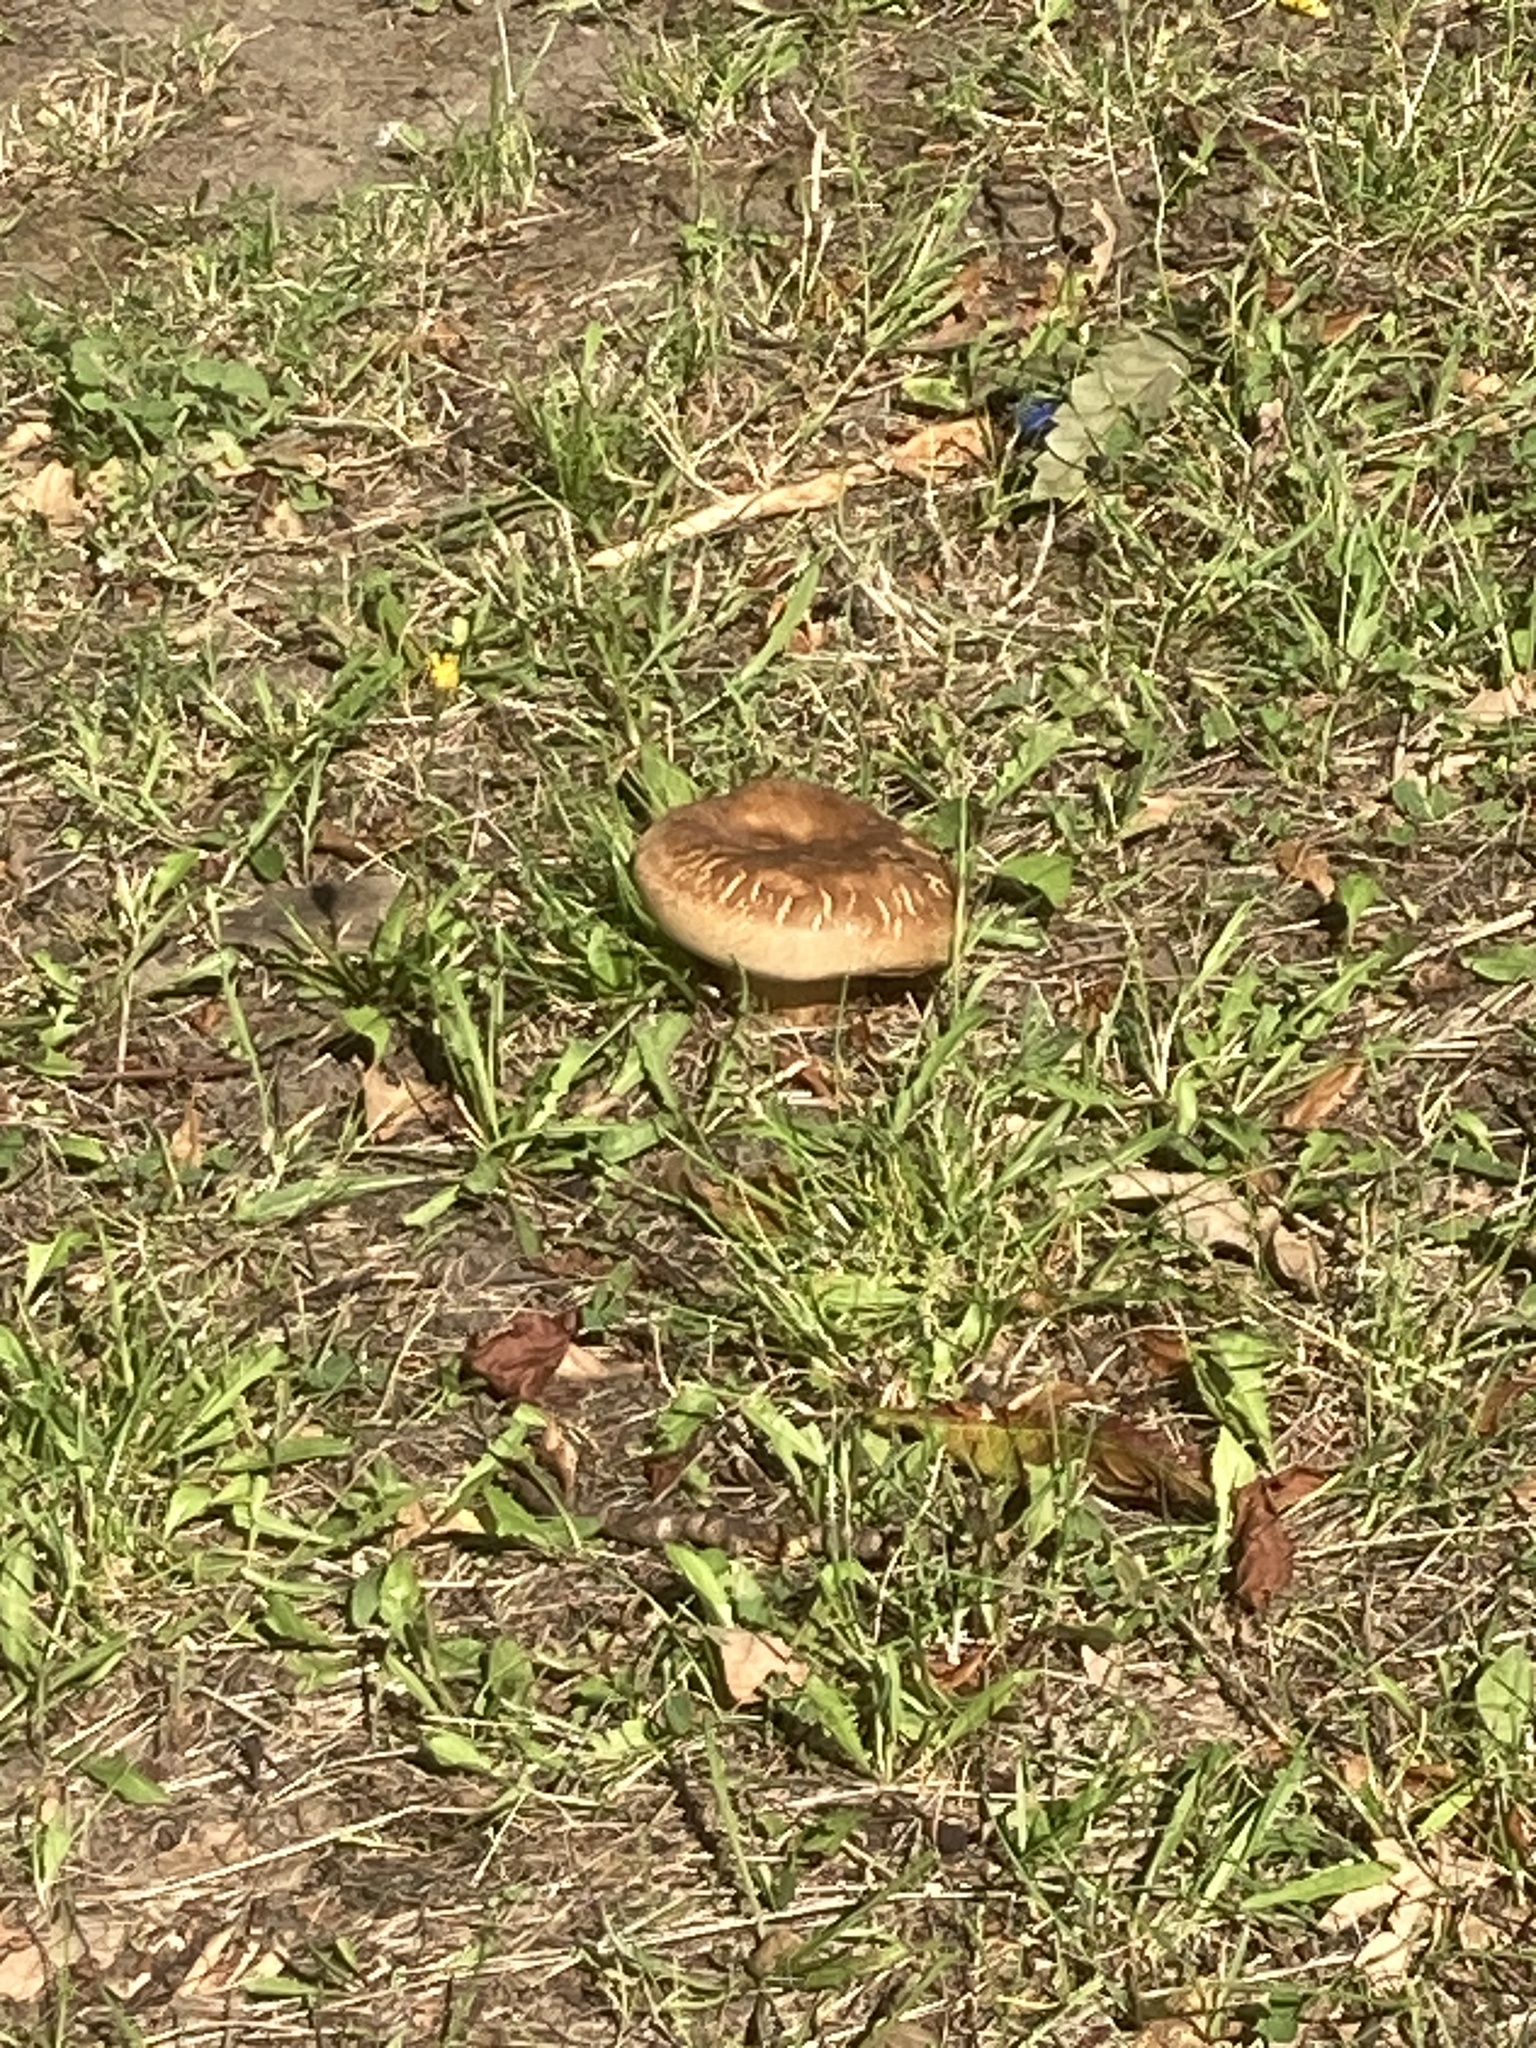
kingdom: Fungi
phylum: Basidiomycota
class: Agaricomycetes
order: Boletales
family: Paxillaceae
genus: Paxillus
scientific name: Paxillus involutus
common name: Brown roll rim
